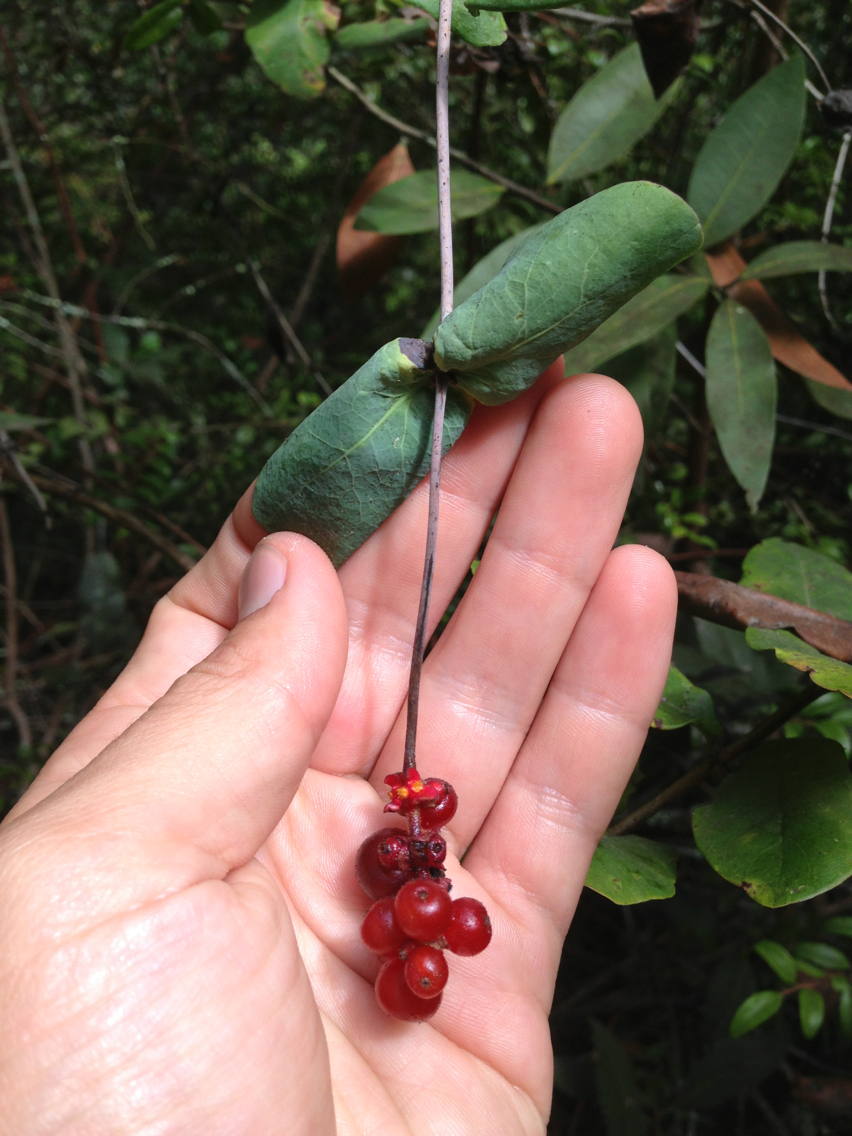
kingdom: Plantae
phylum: Tracheophyta
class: Magnoliopsida
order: Dipsacales
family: Caprifoliaceae
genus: Lonicera
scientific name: Lonicera hispidula
